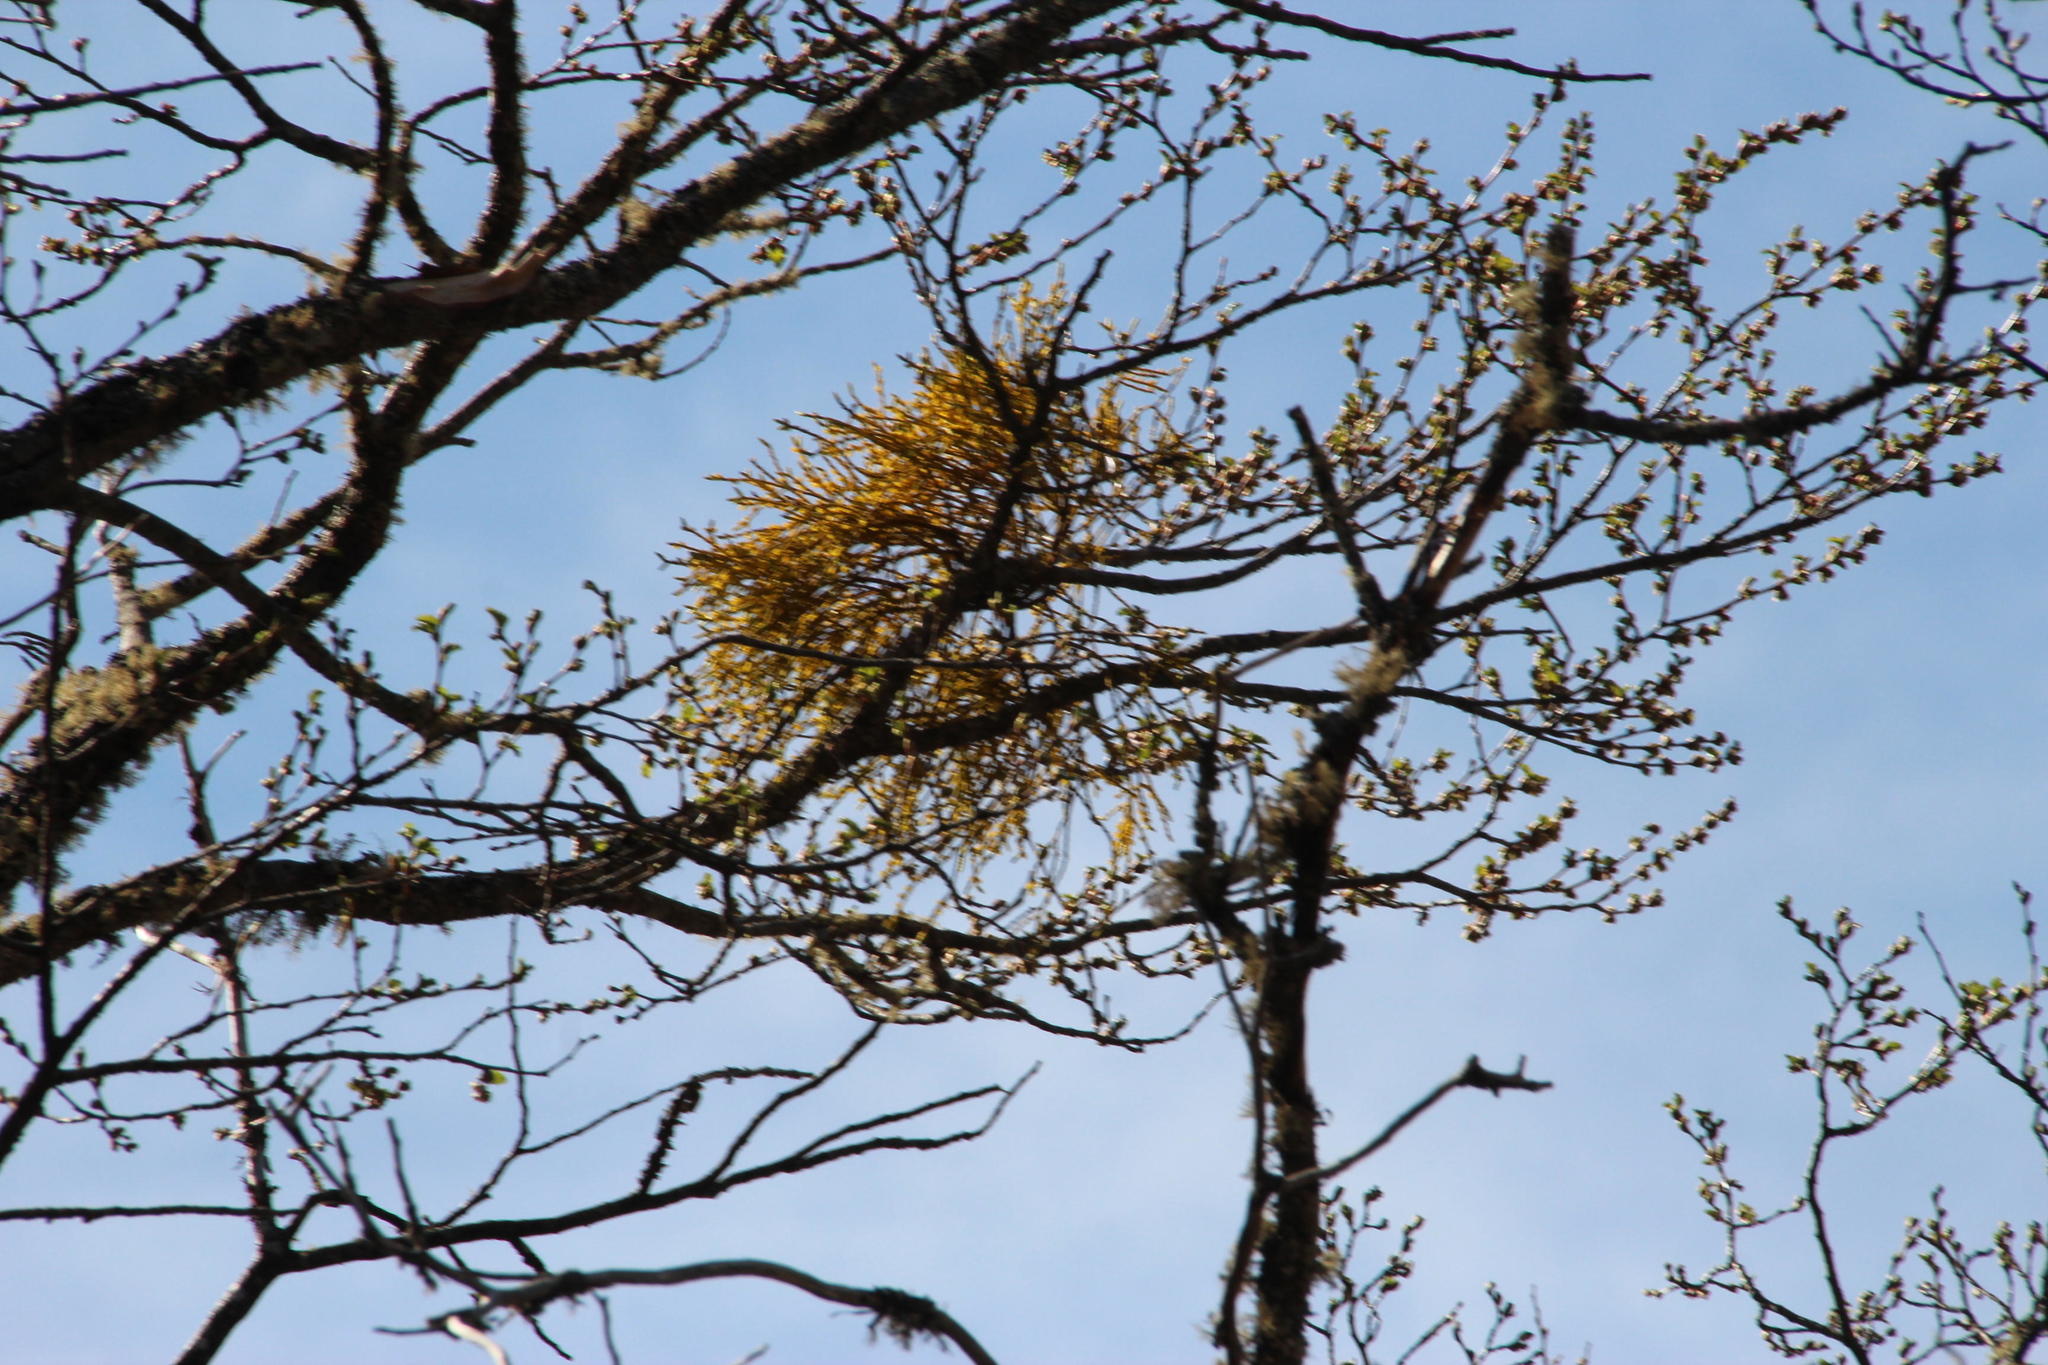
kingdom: Plantae
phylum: Tracheophyta
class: Magnoliopsida
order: Santalales
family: Misodendraceae
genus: Misodendrum
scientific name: Misodendrum punctulatum
